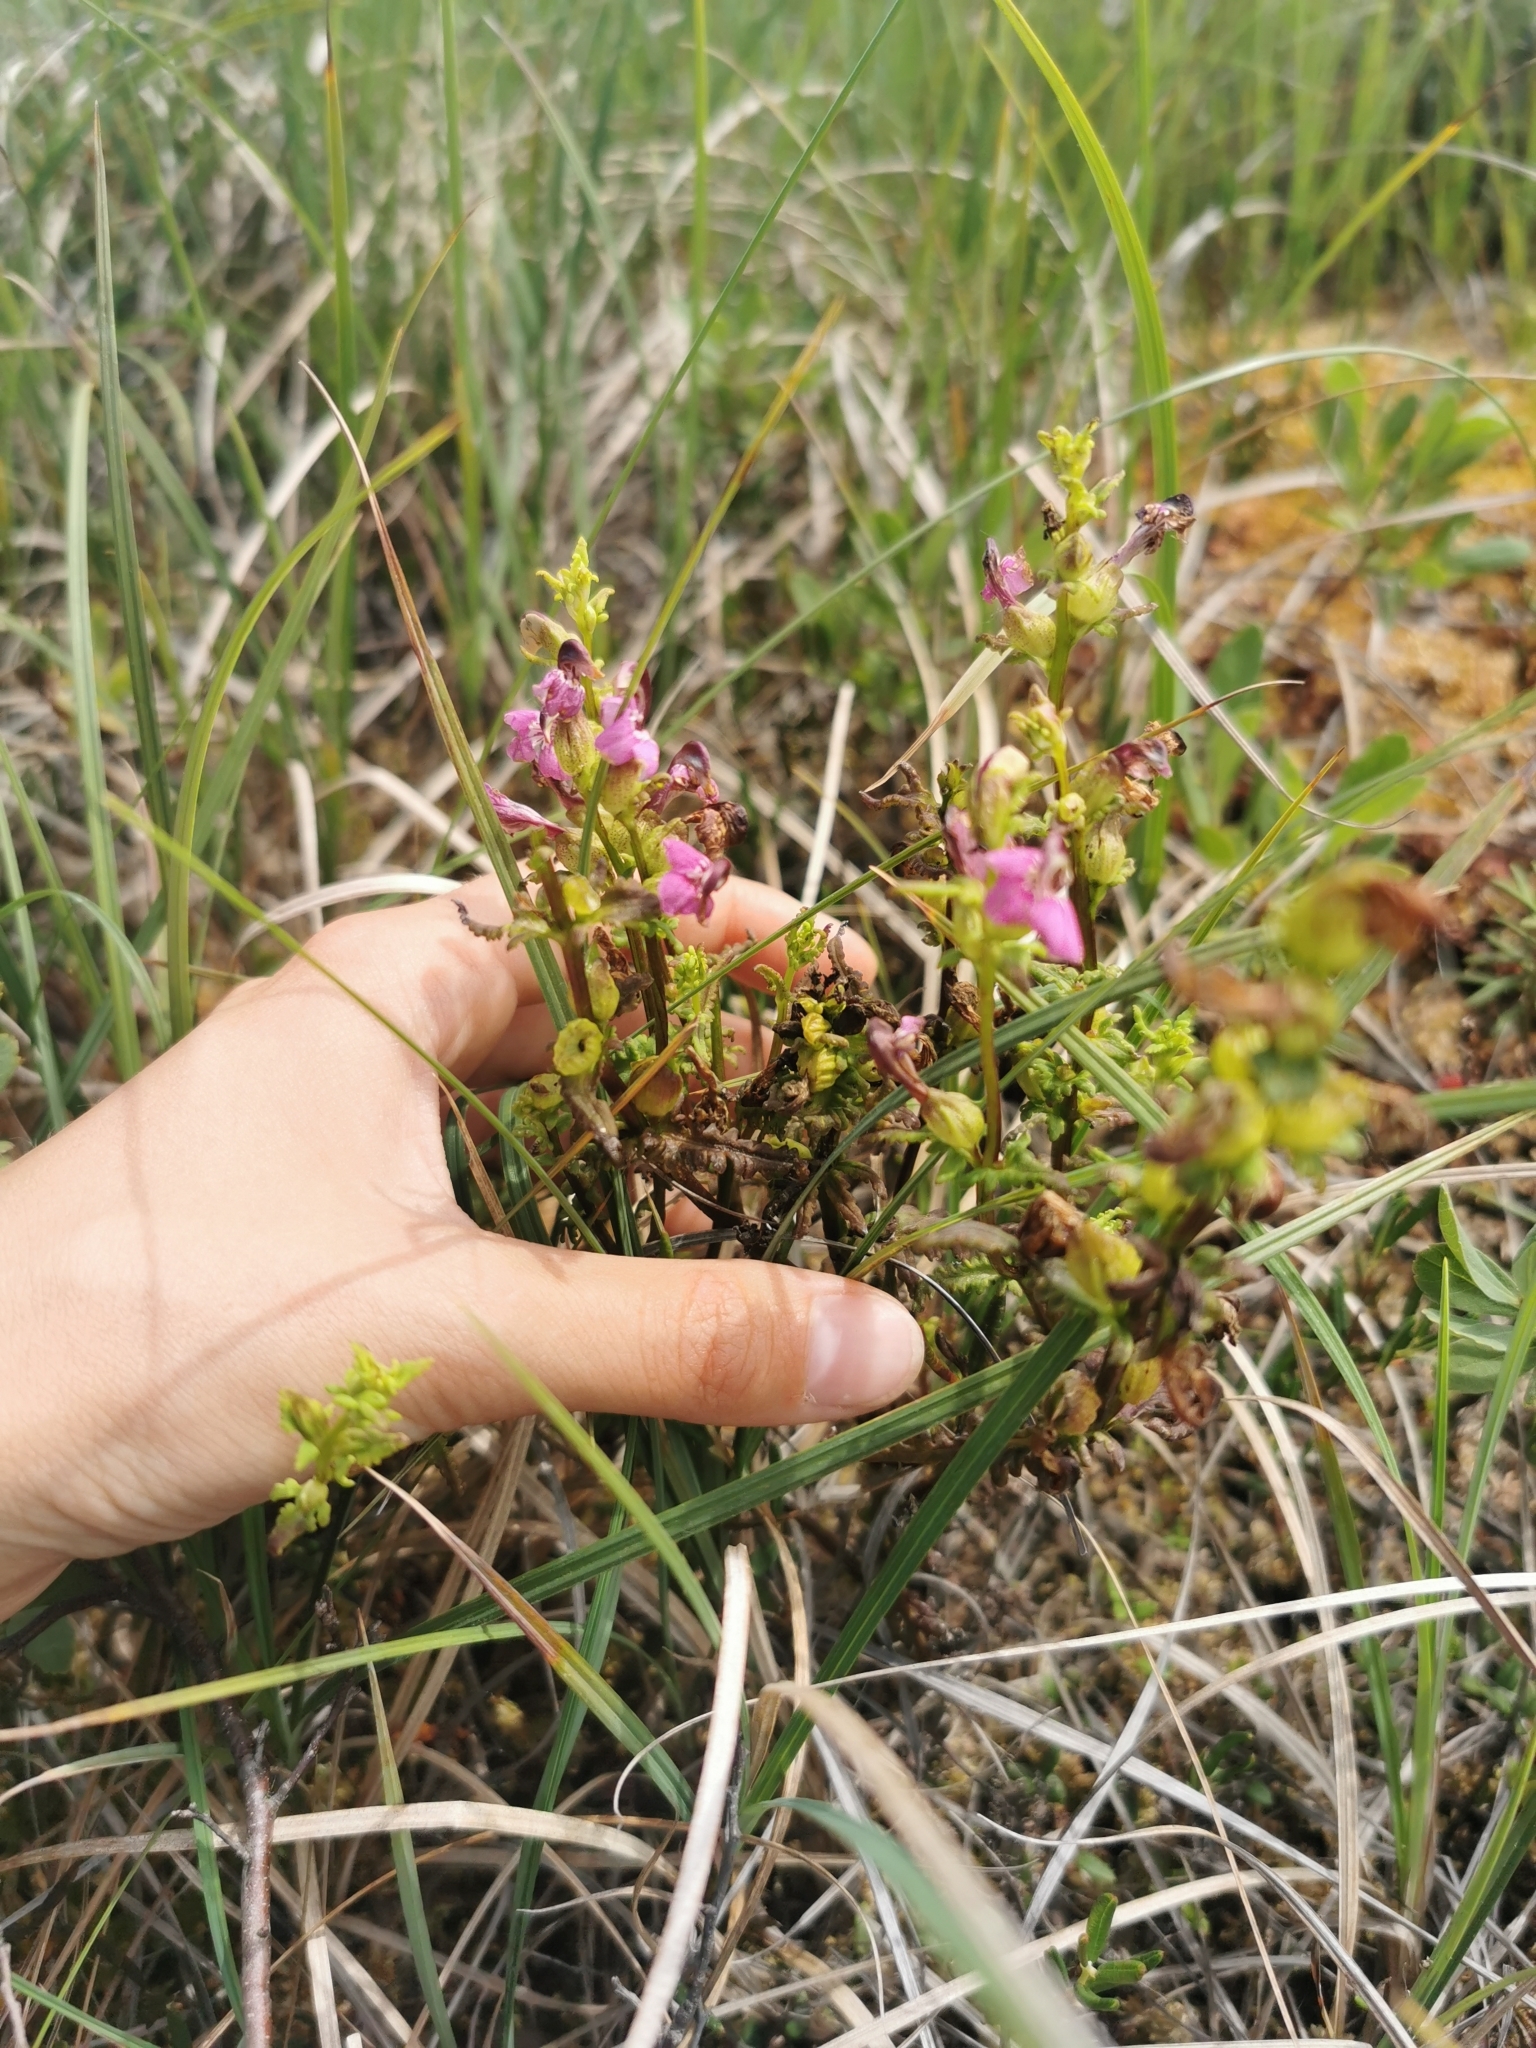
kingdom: Plantae
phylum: Tracheophyta
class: Magnoliopsida
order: Lamiales
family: Orobanchaceae
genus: Pedicularis
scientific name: Pedicularis adunca
